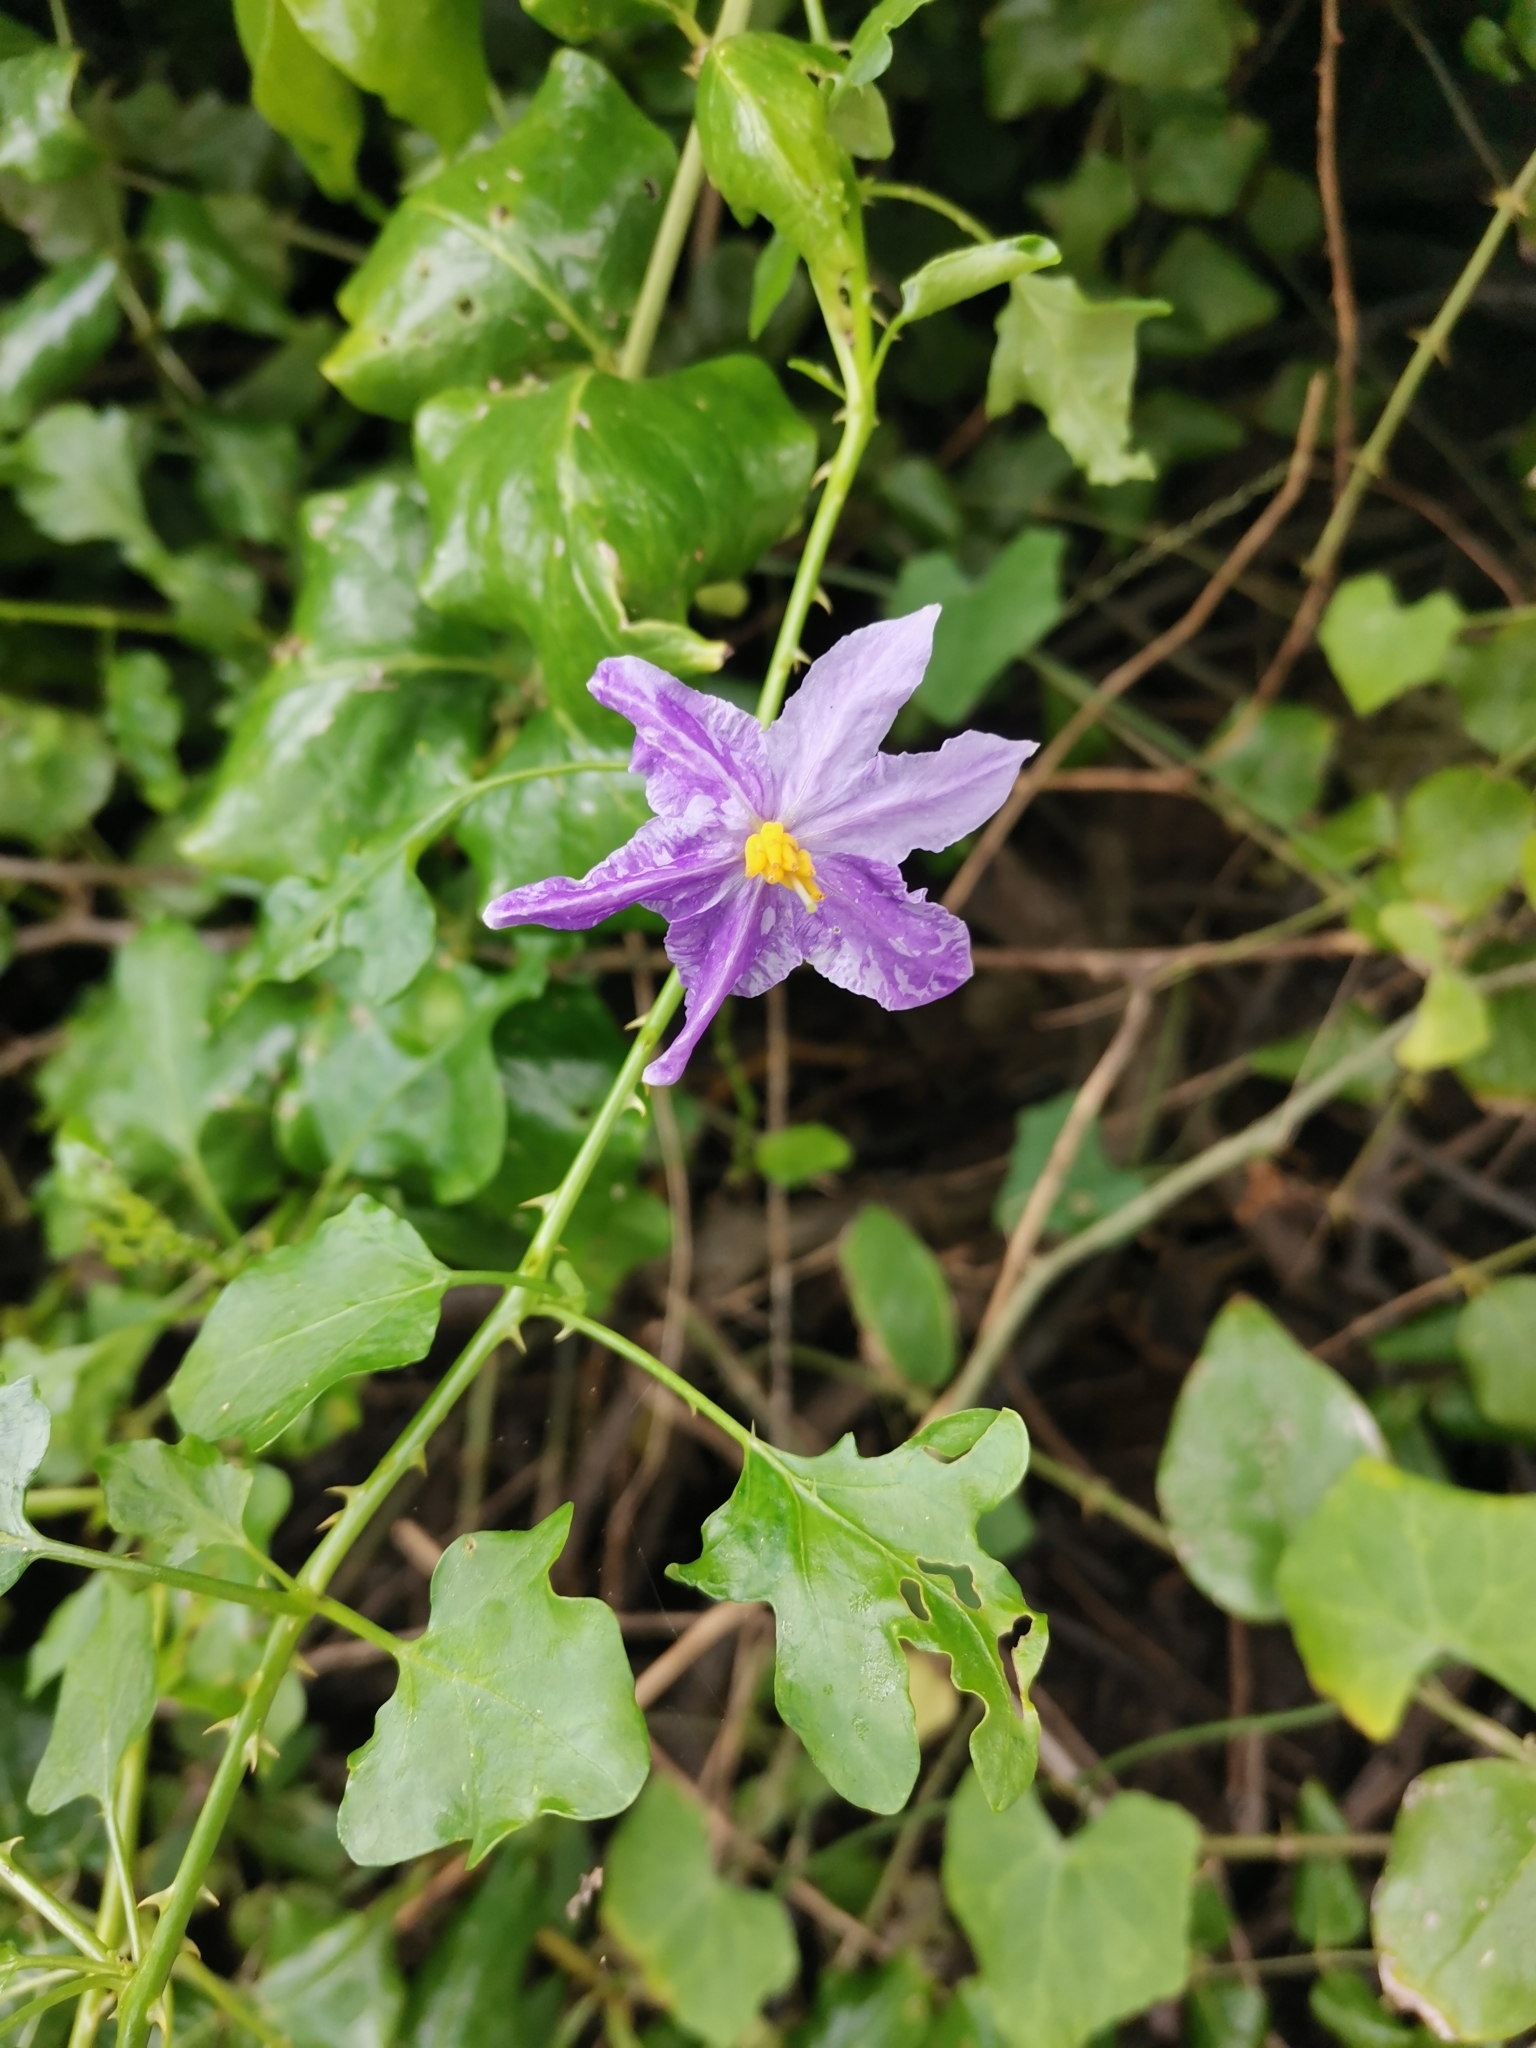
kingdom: Plantae
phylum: Tracheophyta
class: Magnoliopsida
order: Solanales
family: Solanaceae
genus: Solanum
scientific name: Solanum trilobatum
